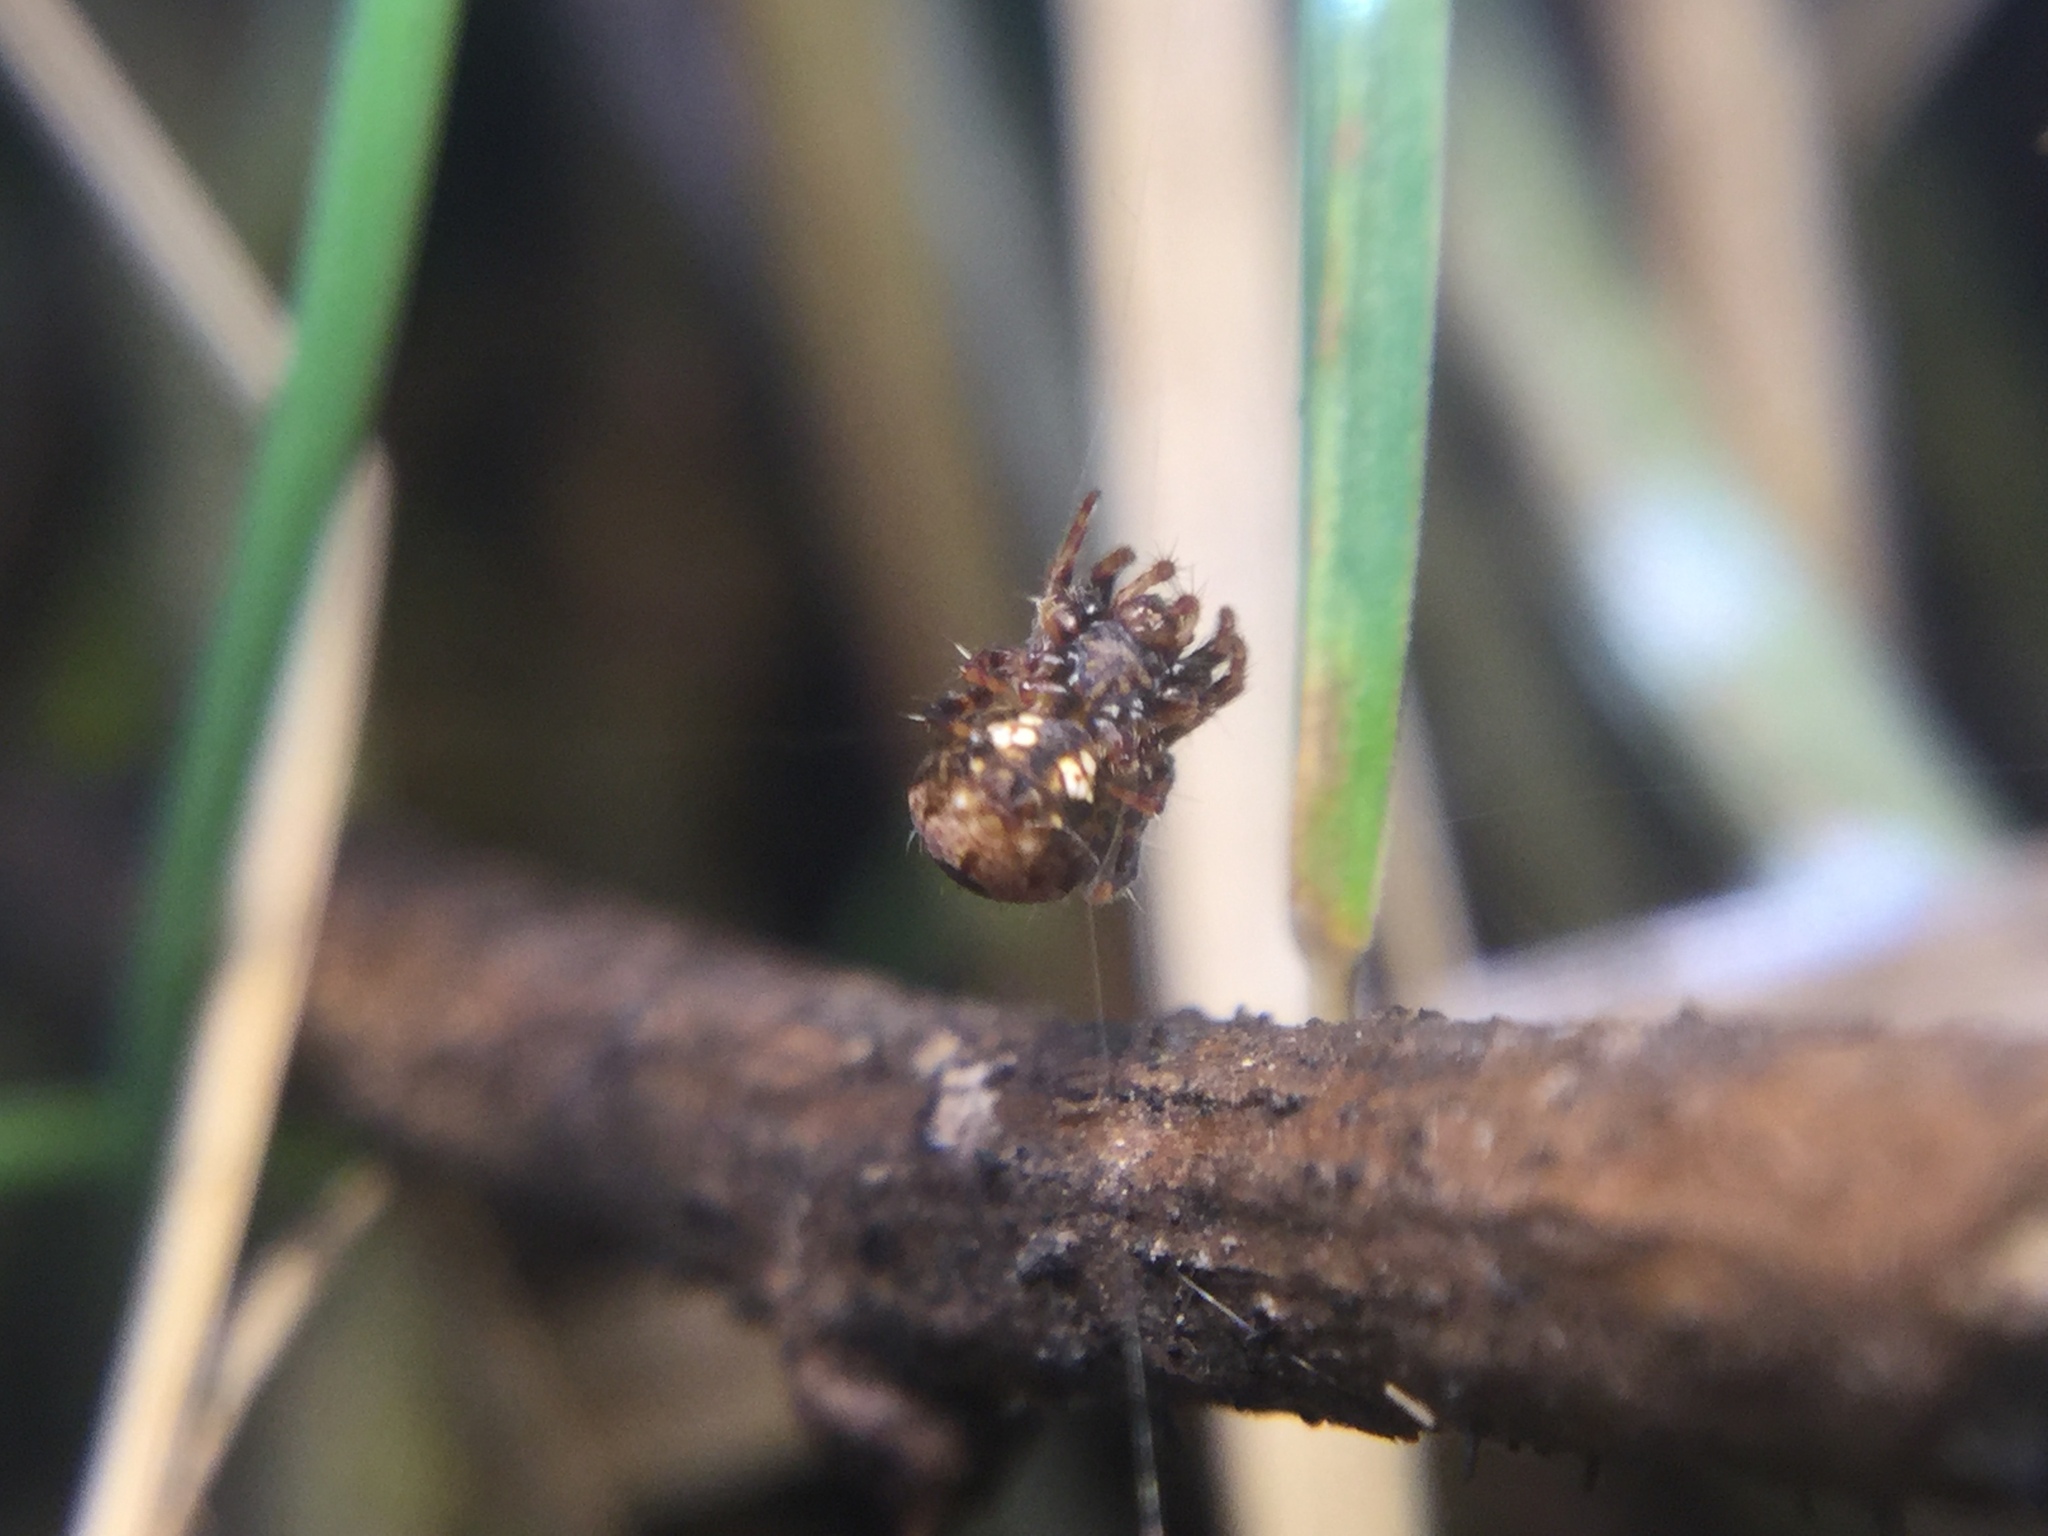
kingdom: Animalia
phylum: Arthropoda
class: Arachnida
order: Araneae
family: Araneidae
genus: Gea
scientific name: Gea heptagon
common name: Orb weavers
